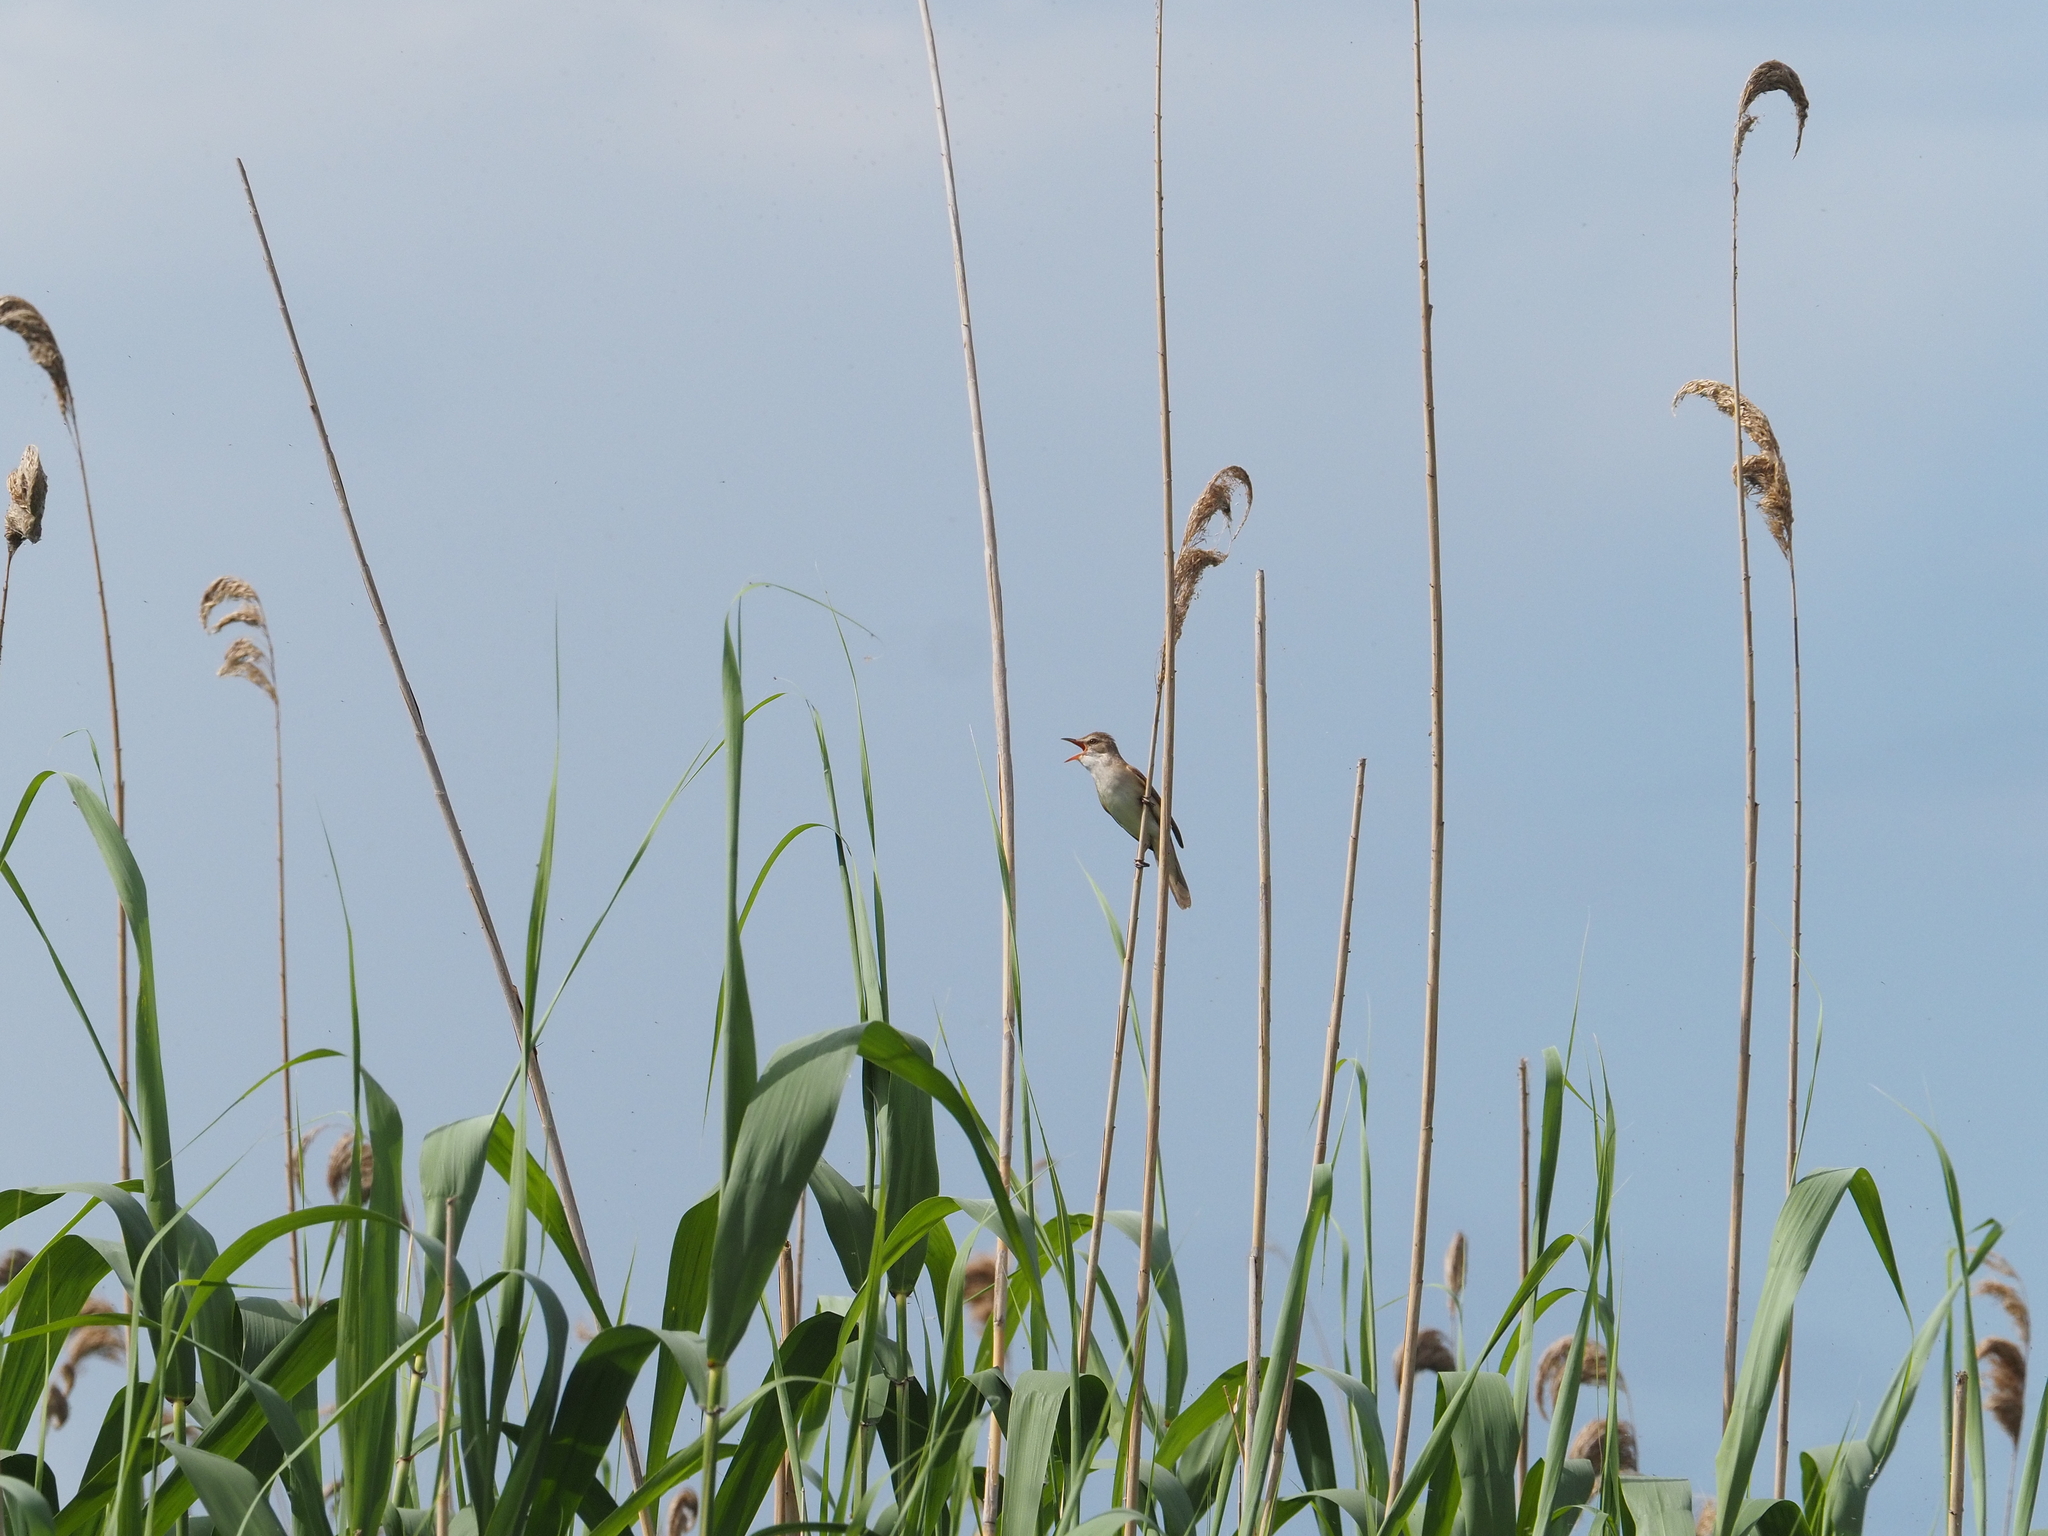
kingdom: Animalia
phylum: Chordata
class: Aves
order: Passeriformes
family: Acrocephalidae
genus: Acrocephalus
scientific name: Acrocephalus arundinaceus
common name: Great reed warbler
